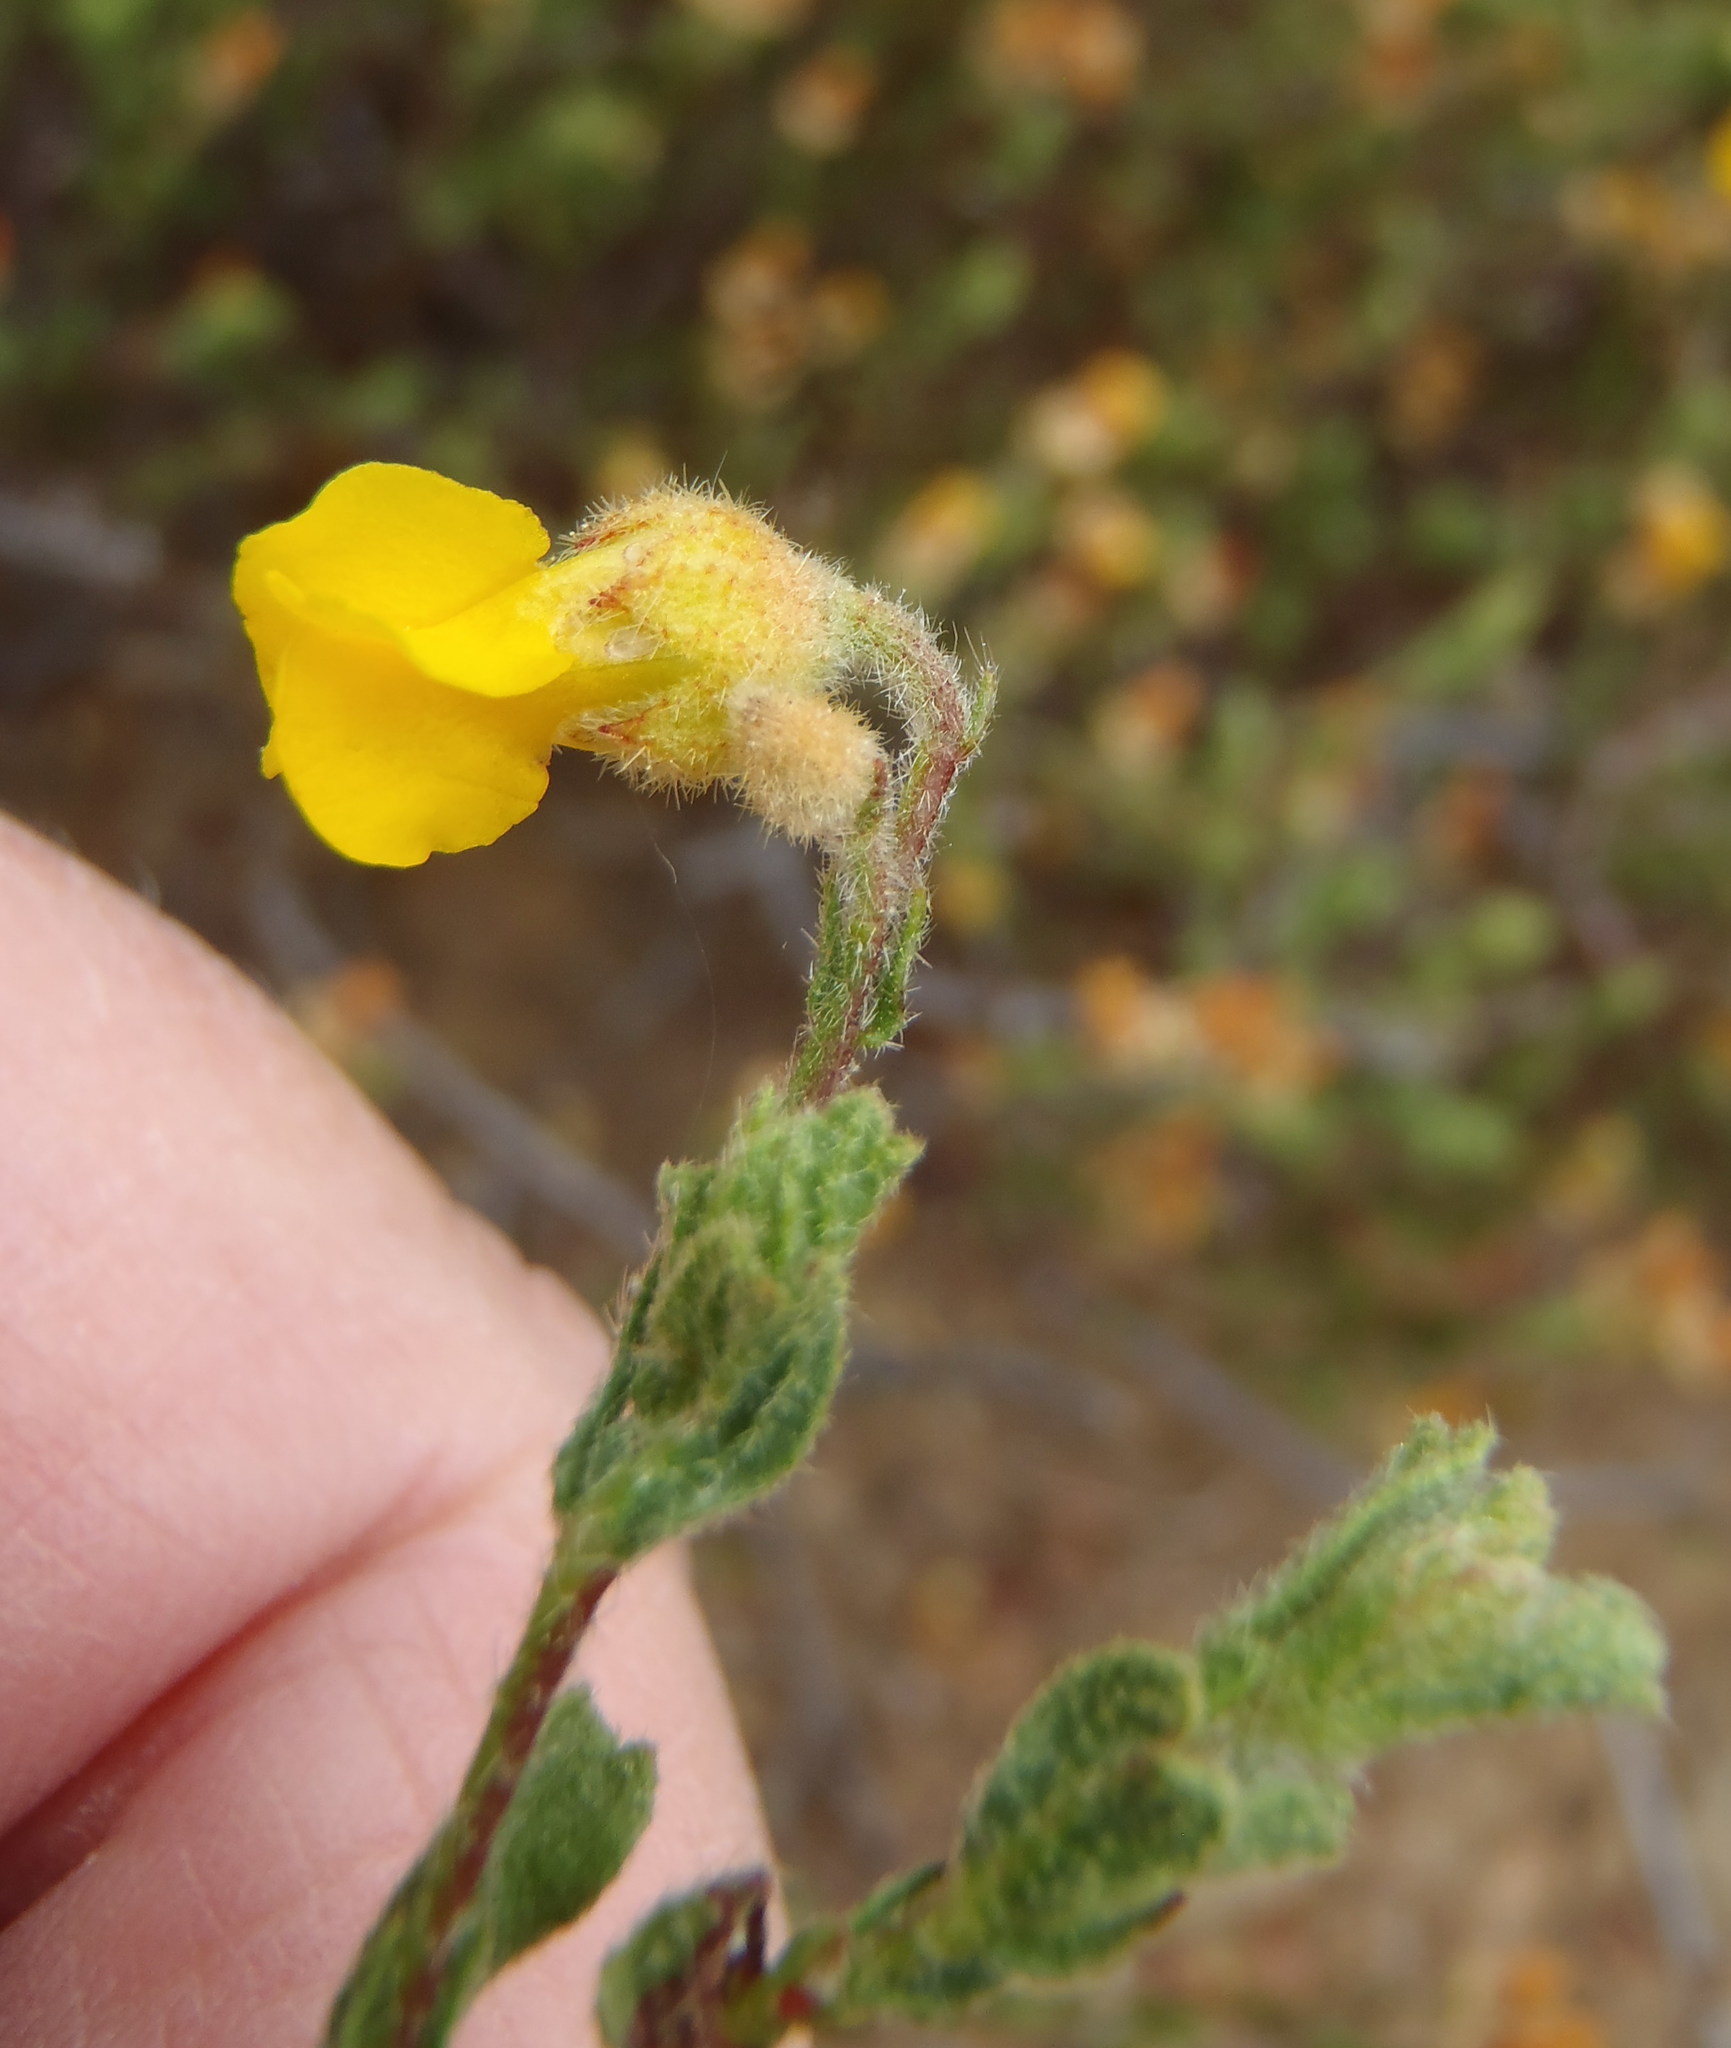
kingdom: Plantae
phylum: Tracheophyta
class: Magnoliopsida
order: Malvales
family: Malvaceae
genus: Hermannia
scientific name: Hermannia stipulacea
